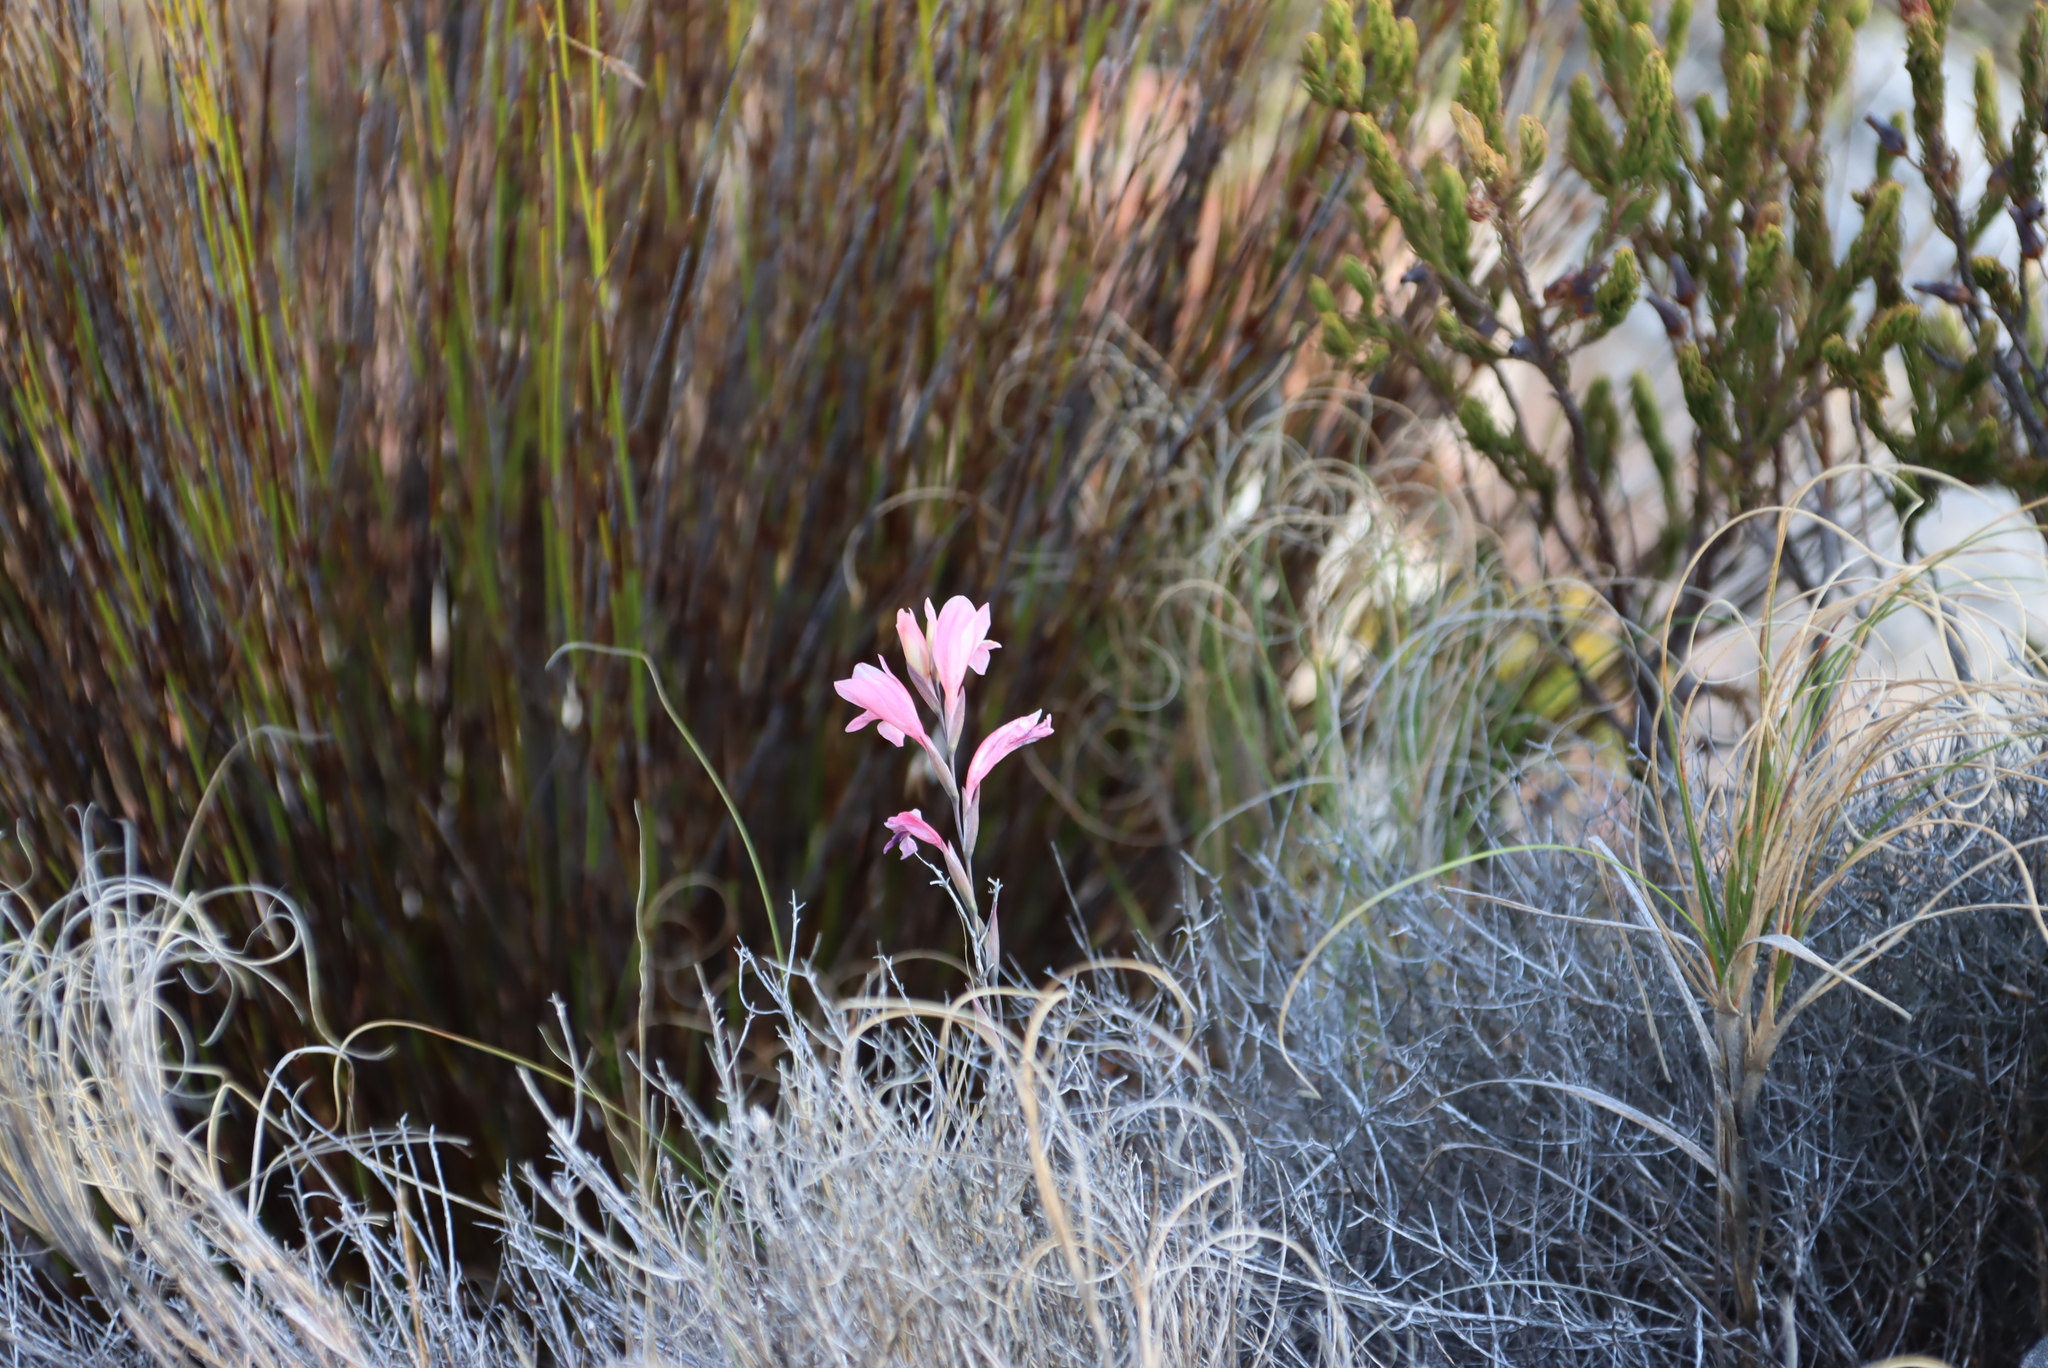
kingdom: Plantae
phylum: Tracheophyta
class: Liliopsida
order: Asparagales
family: Iridaceae
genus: Gladiolus
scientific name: Gladiolus brevifolius
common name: March pypie
